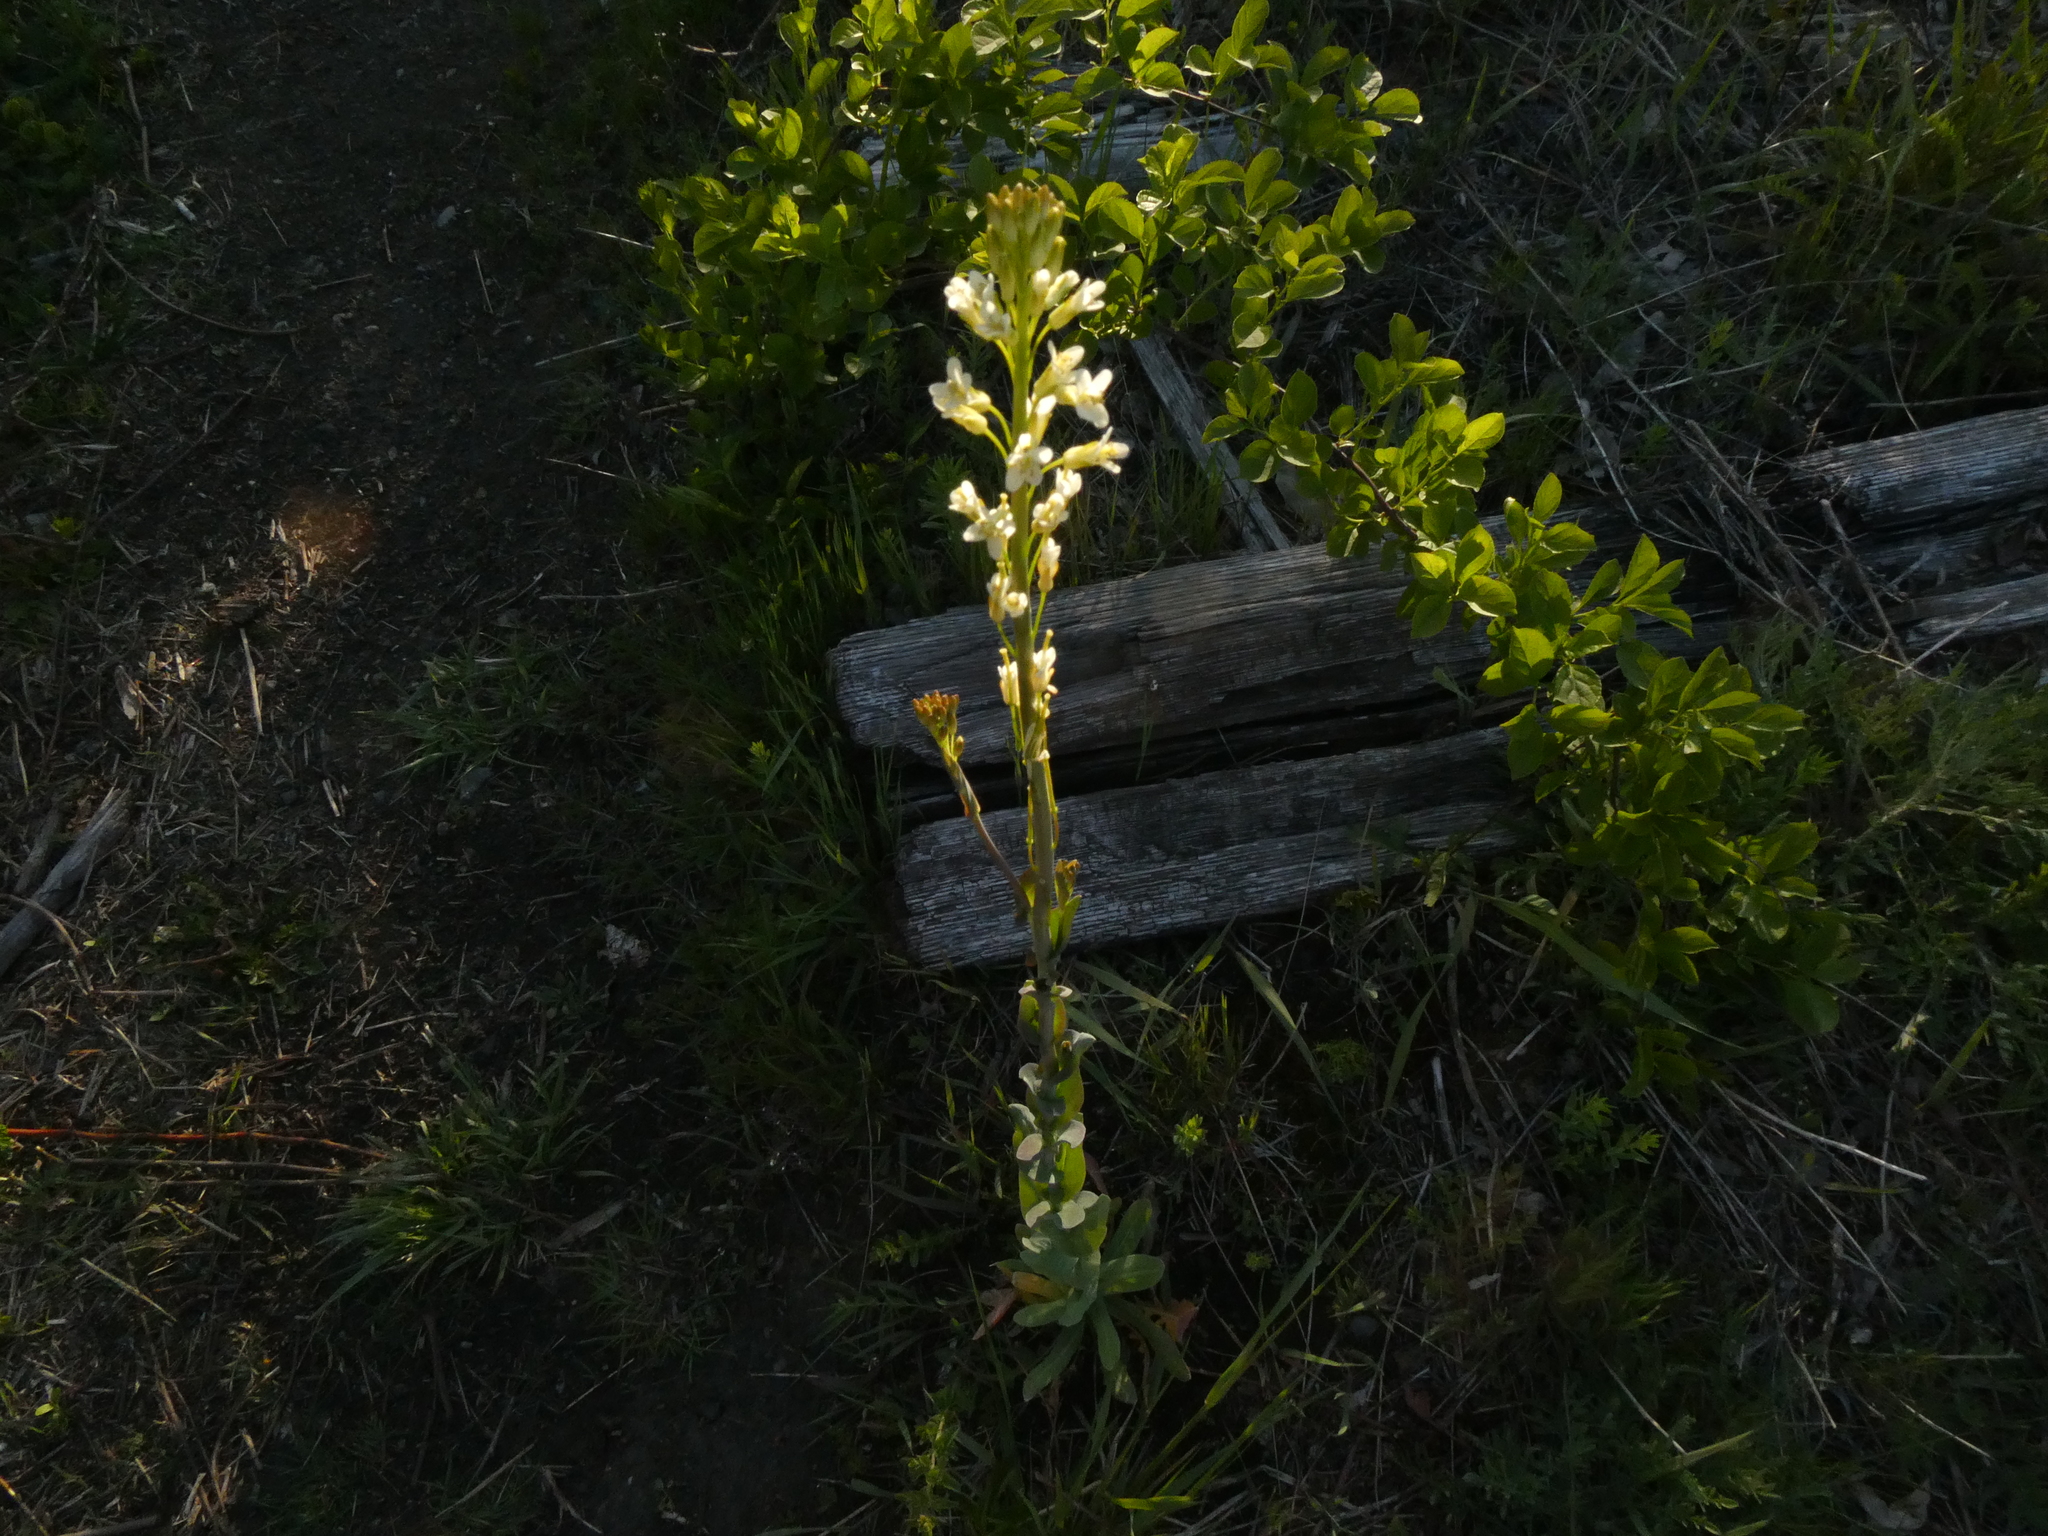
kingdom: Plantae
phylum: Tracheophyta
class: Magnoliopsida
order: Brassicales
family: Brassicaceae
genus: Turritis
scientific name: Turritis glabra
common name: Tower rockcress
